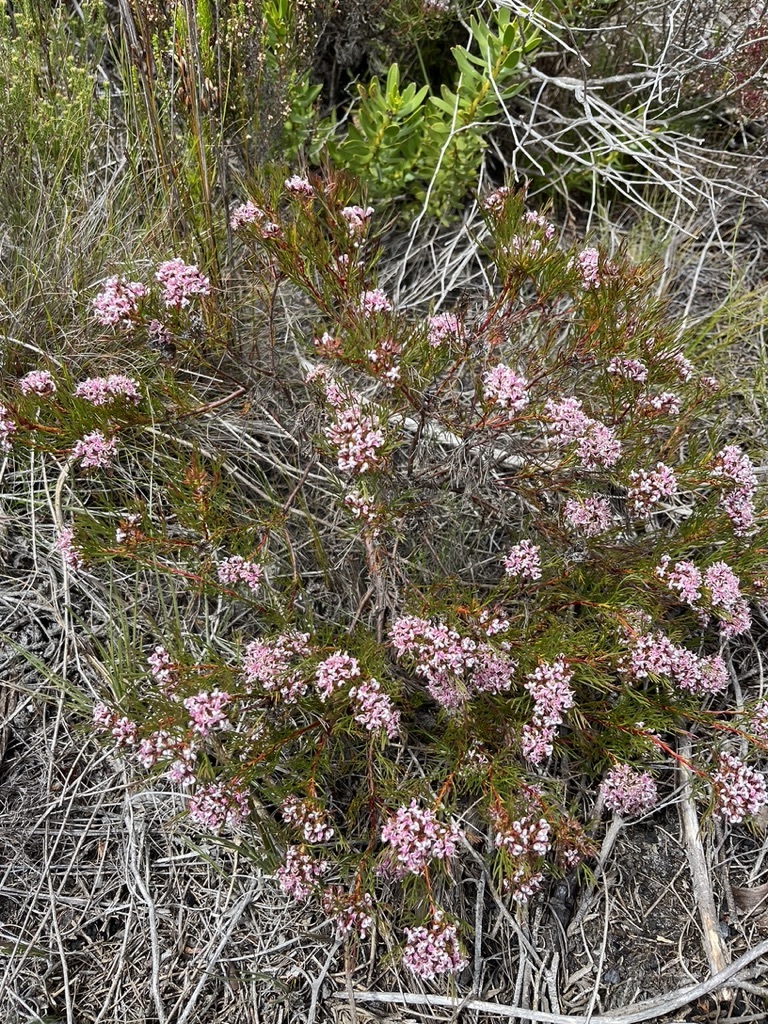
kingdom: Plantae
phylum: Tracheophyta
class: Magnoliopsida
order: Proteales
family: Proteaceae
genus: Serruria
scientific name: Serruria bolusii
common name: Agulhas spiderhead
